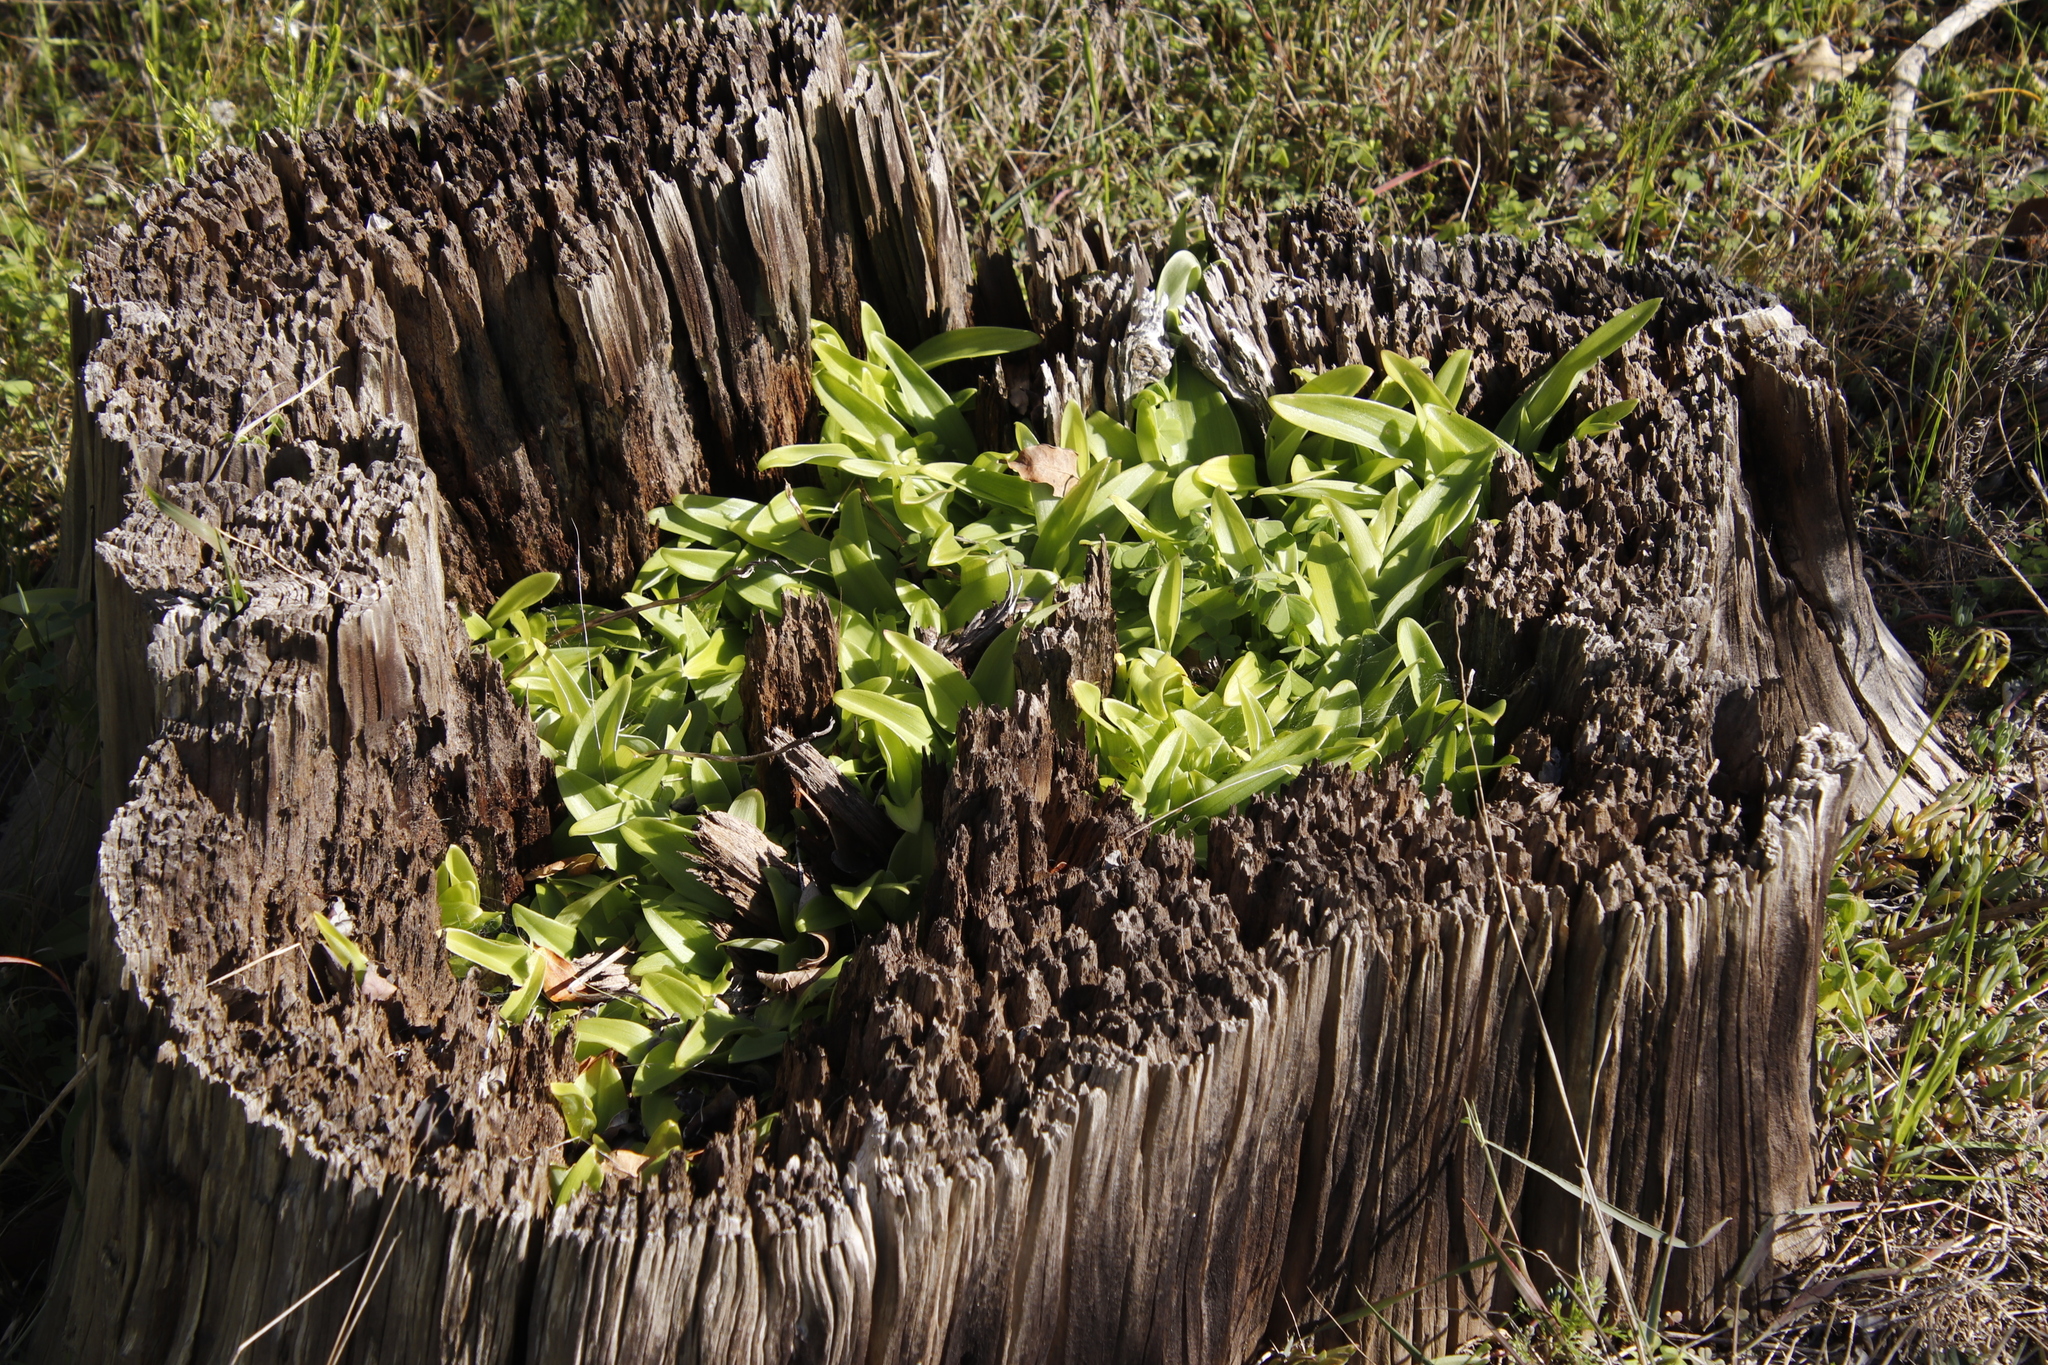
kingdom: Plantae
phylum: Tracheophyta
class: Liliopsida
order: Asparagales
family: Orchidaceae
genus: Satyrium
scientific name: Satyrium odorum
